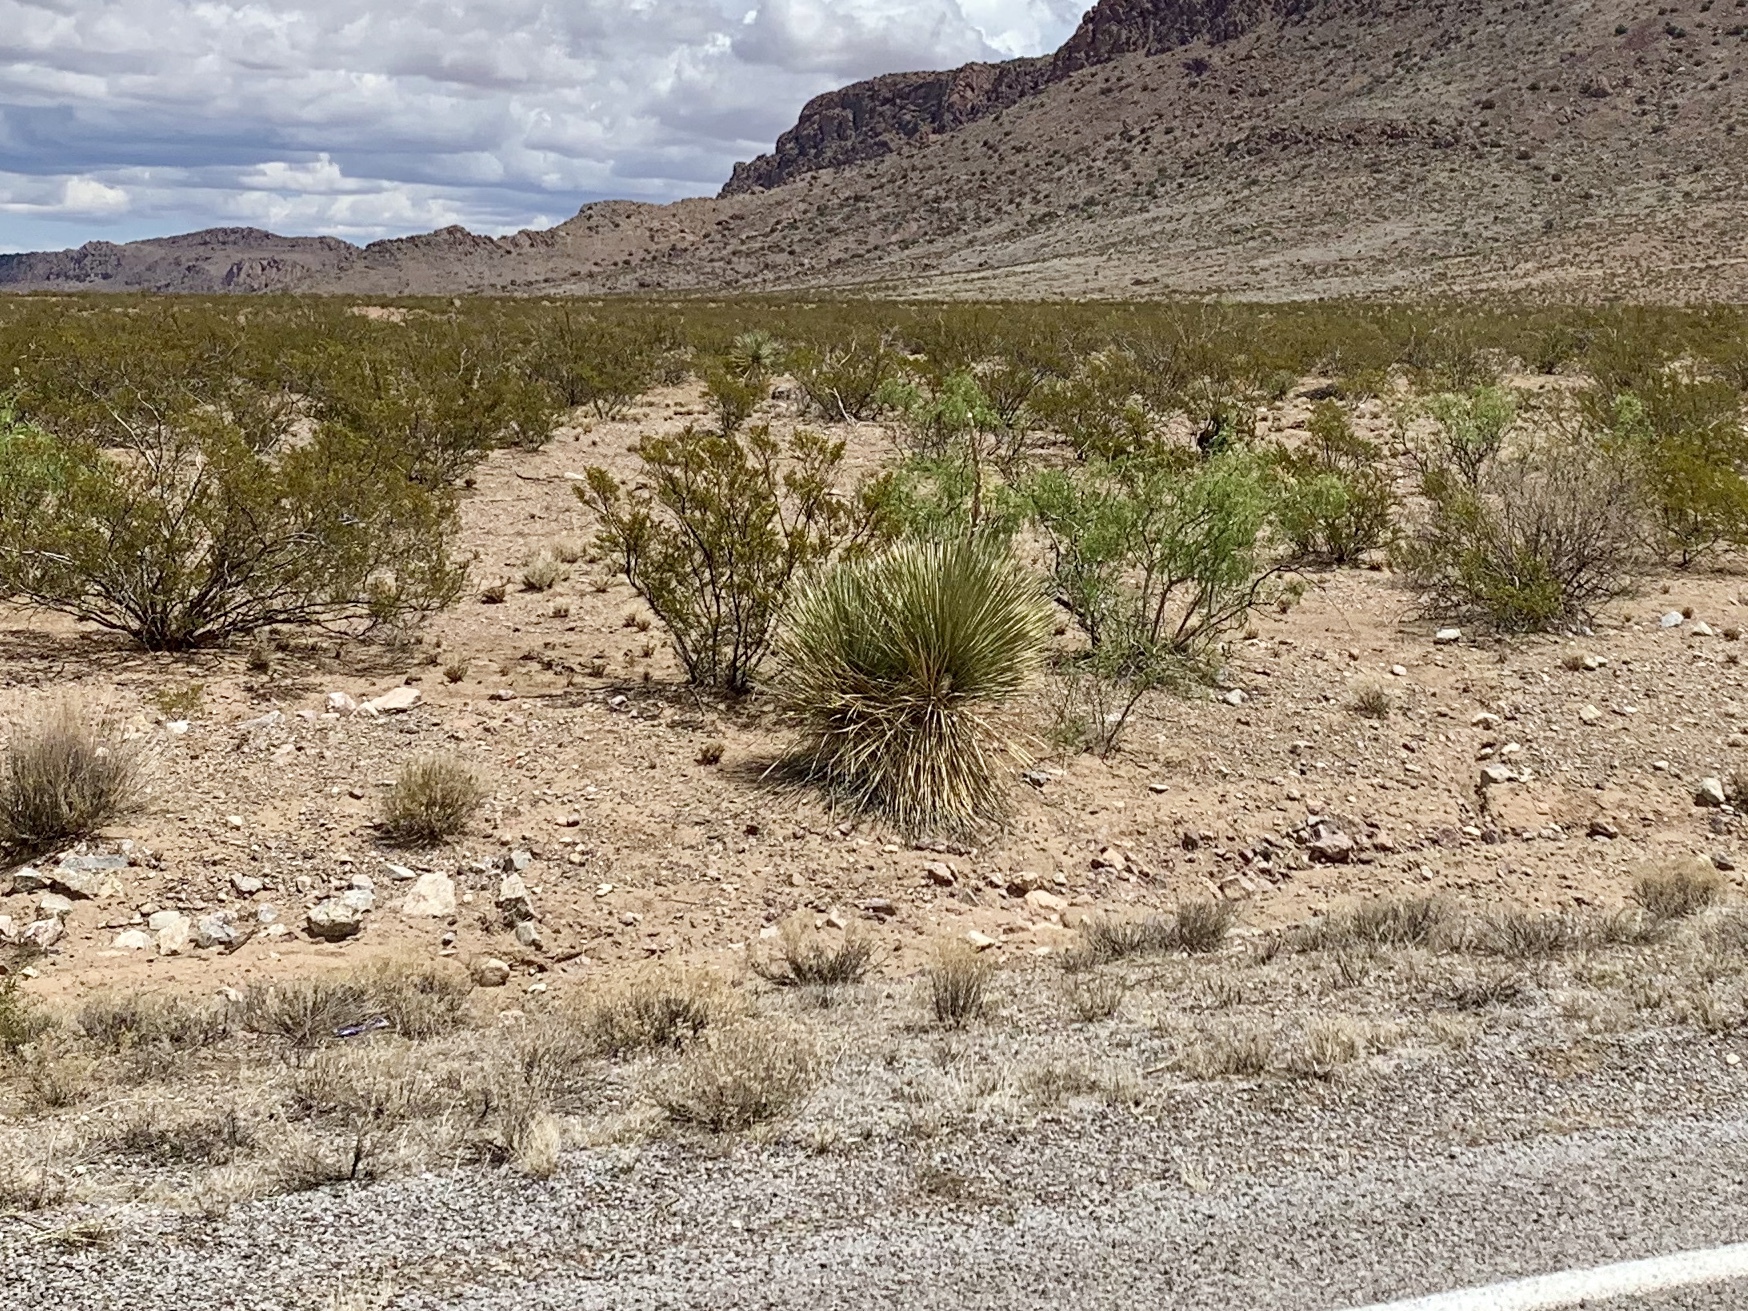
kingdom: Plantae
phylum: Tracheophyta
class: Liliopsida
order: Asparagales
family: Asparagaceae
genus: Dasylirion
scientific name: Dasylirion wheeleri
